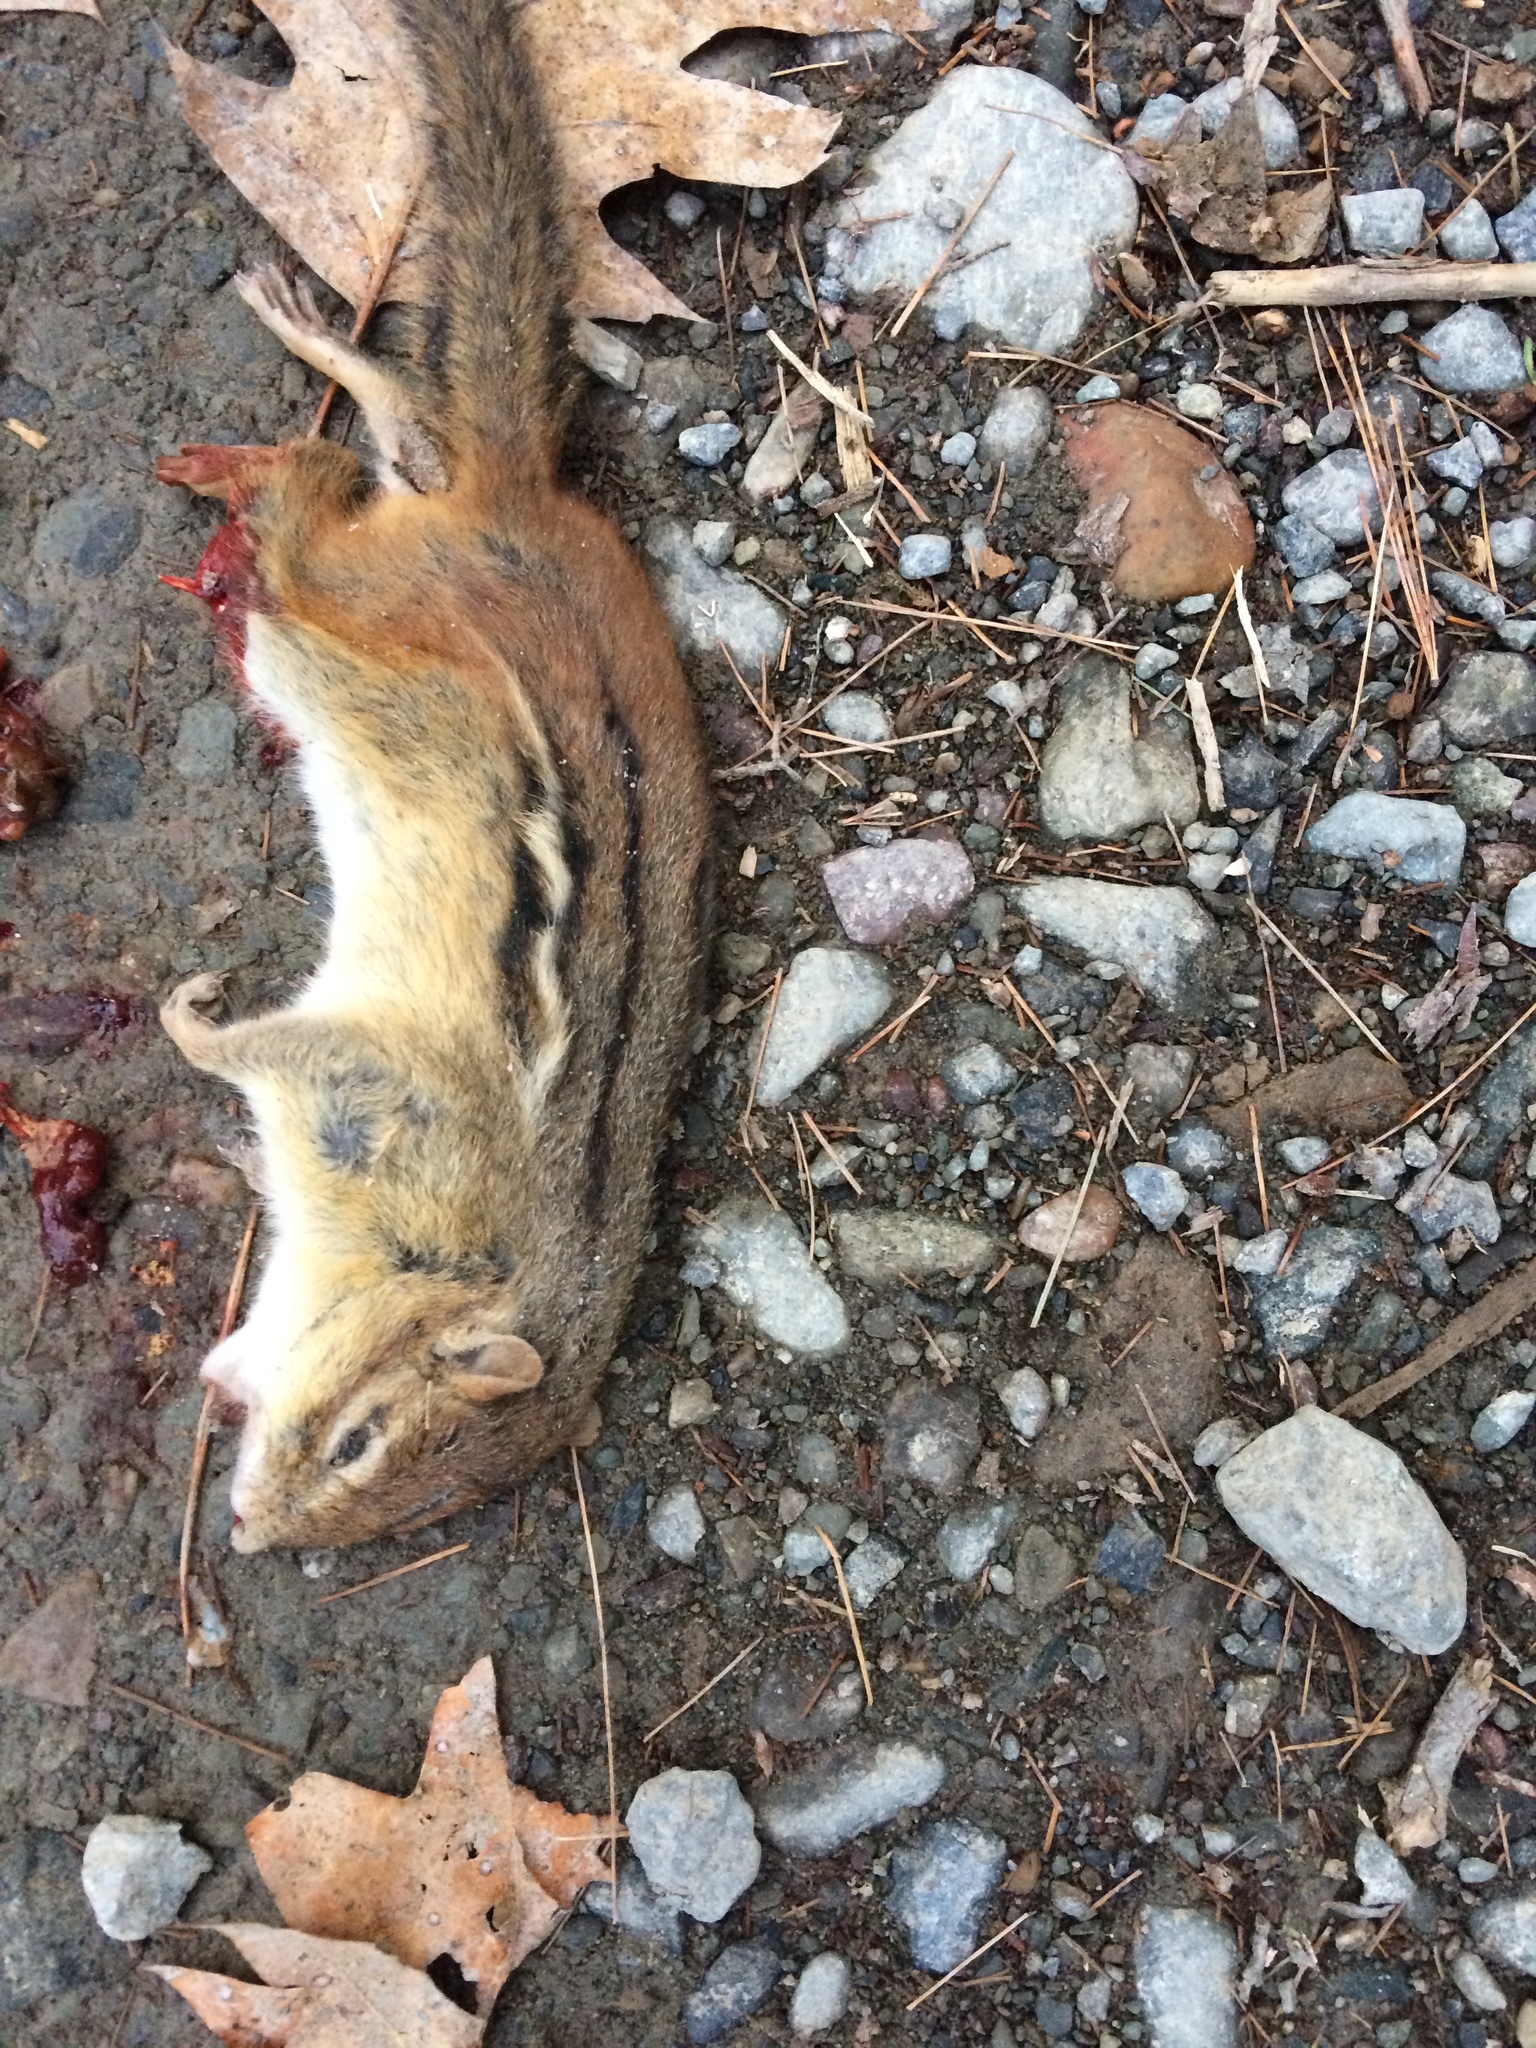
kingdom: Animalia
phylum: Chordata
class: Mammalia
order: Rodentia
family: Sciuridae
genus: Tamias
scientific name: Tamias striatus
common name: Eastern chipmunk
